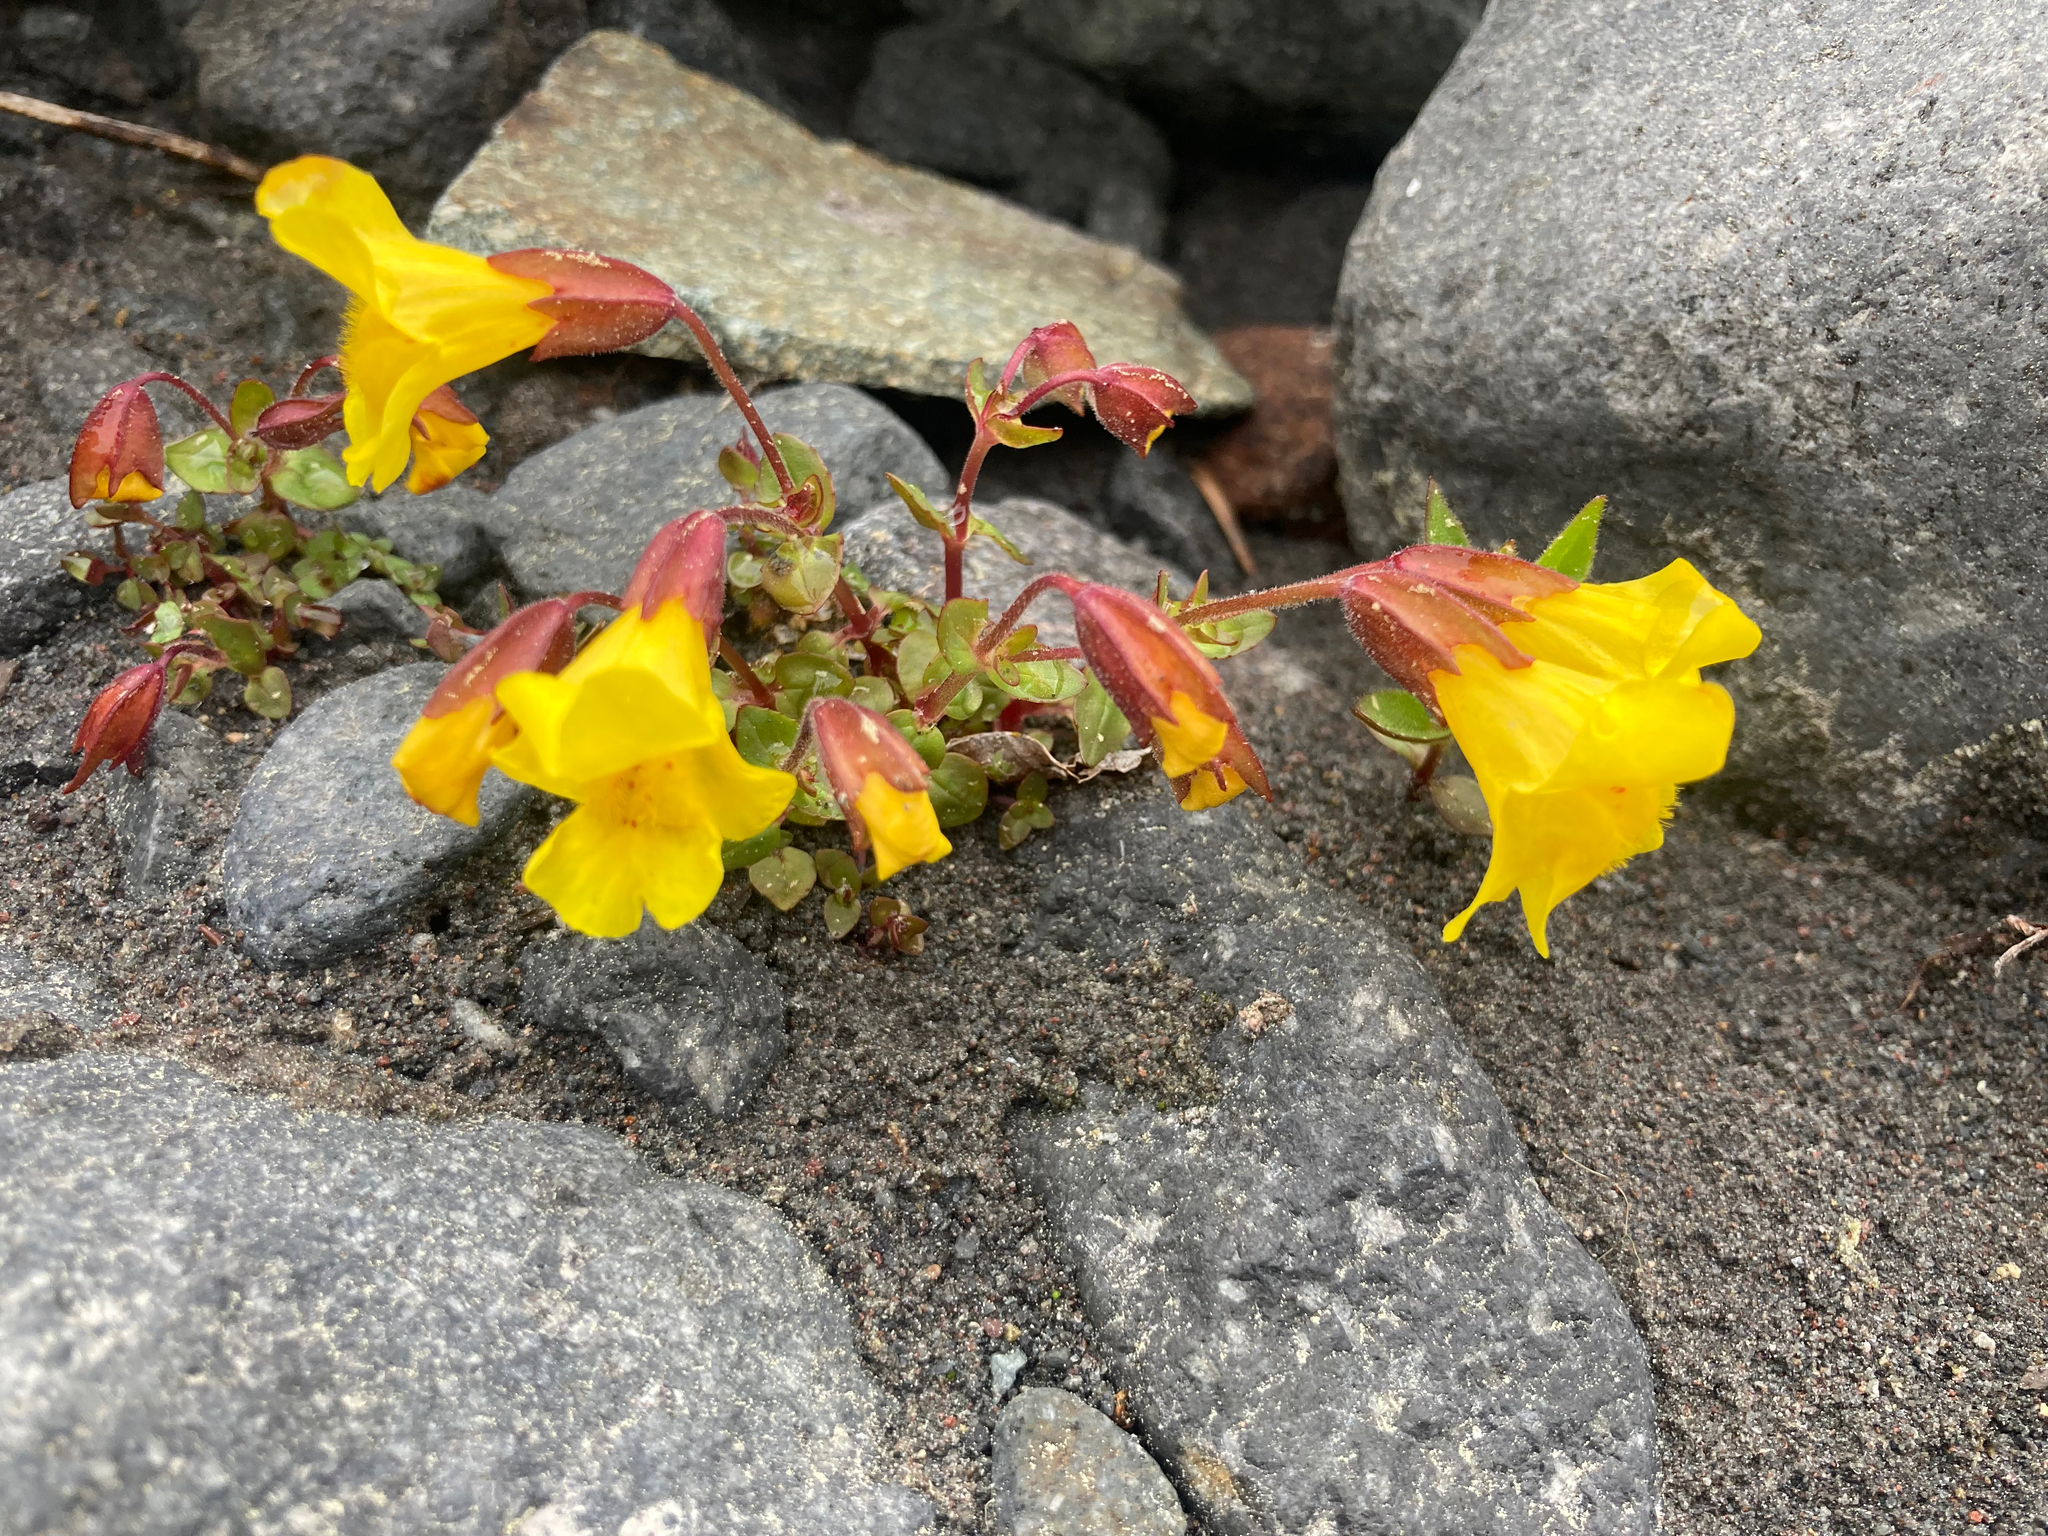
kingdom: Plantae
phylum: Tracheophyta
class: Magnoliopsida
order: Lamiales
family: Phrymaceae
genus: Erythranthe
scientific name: Erythranthe caespitosa
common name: Subalpine monkeyflower
